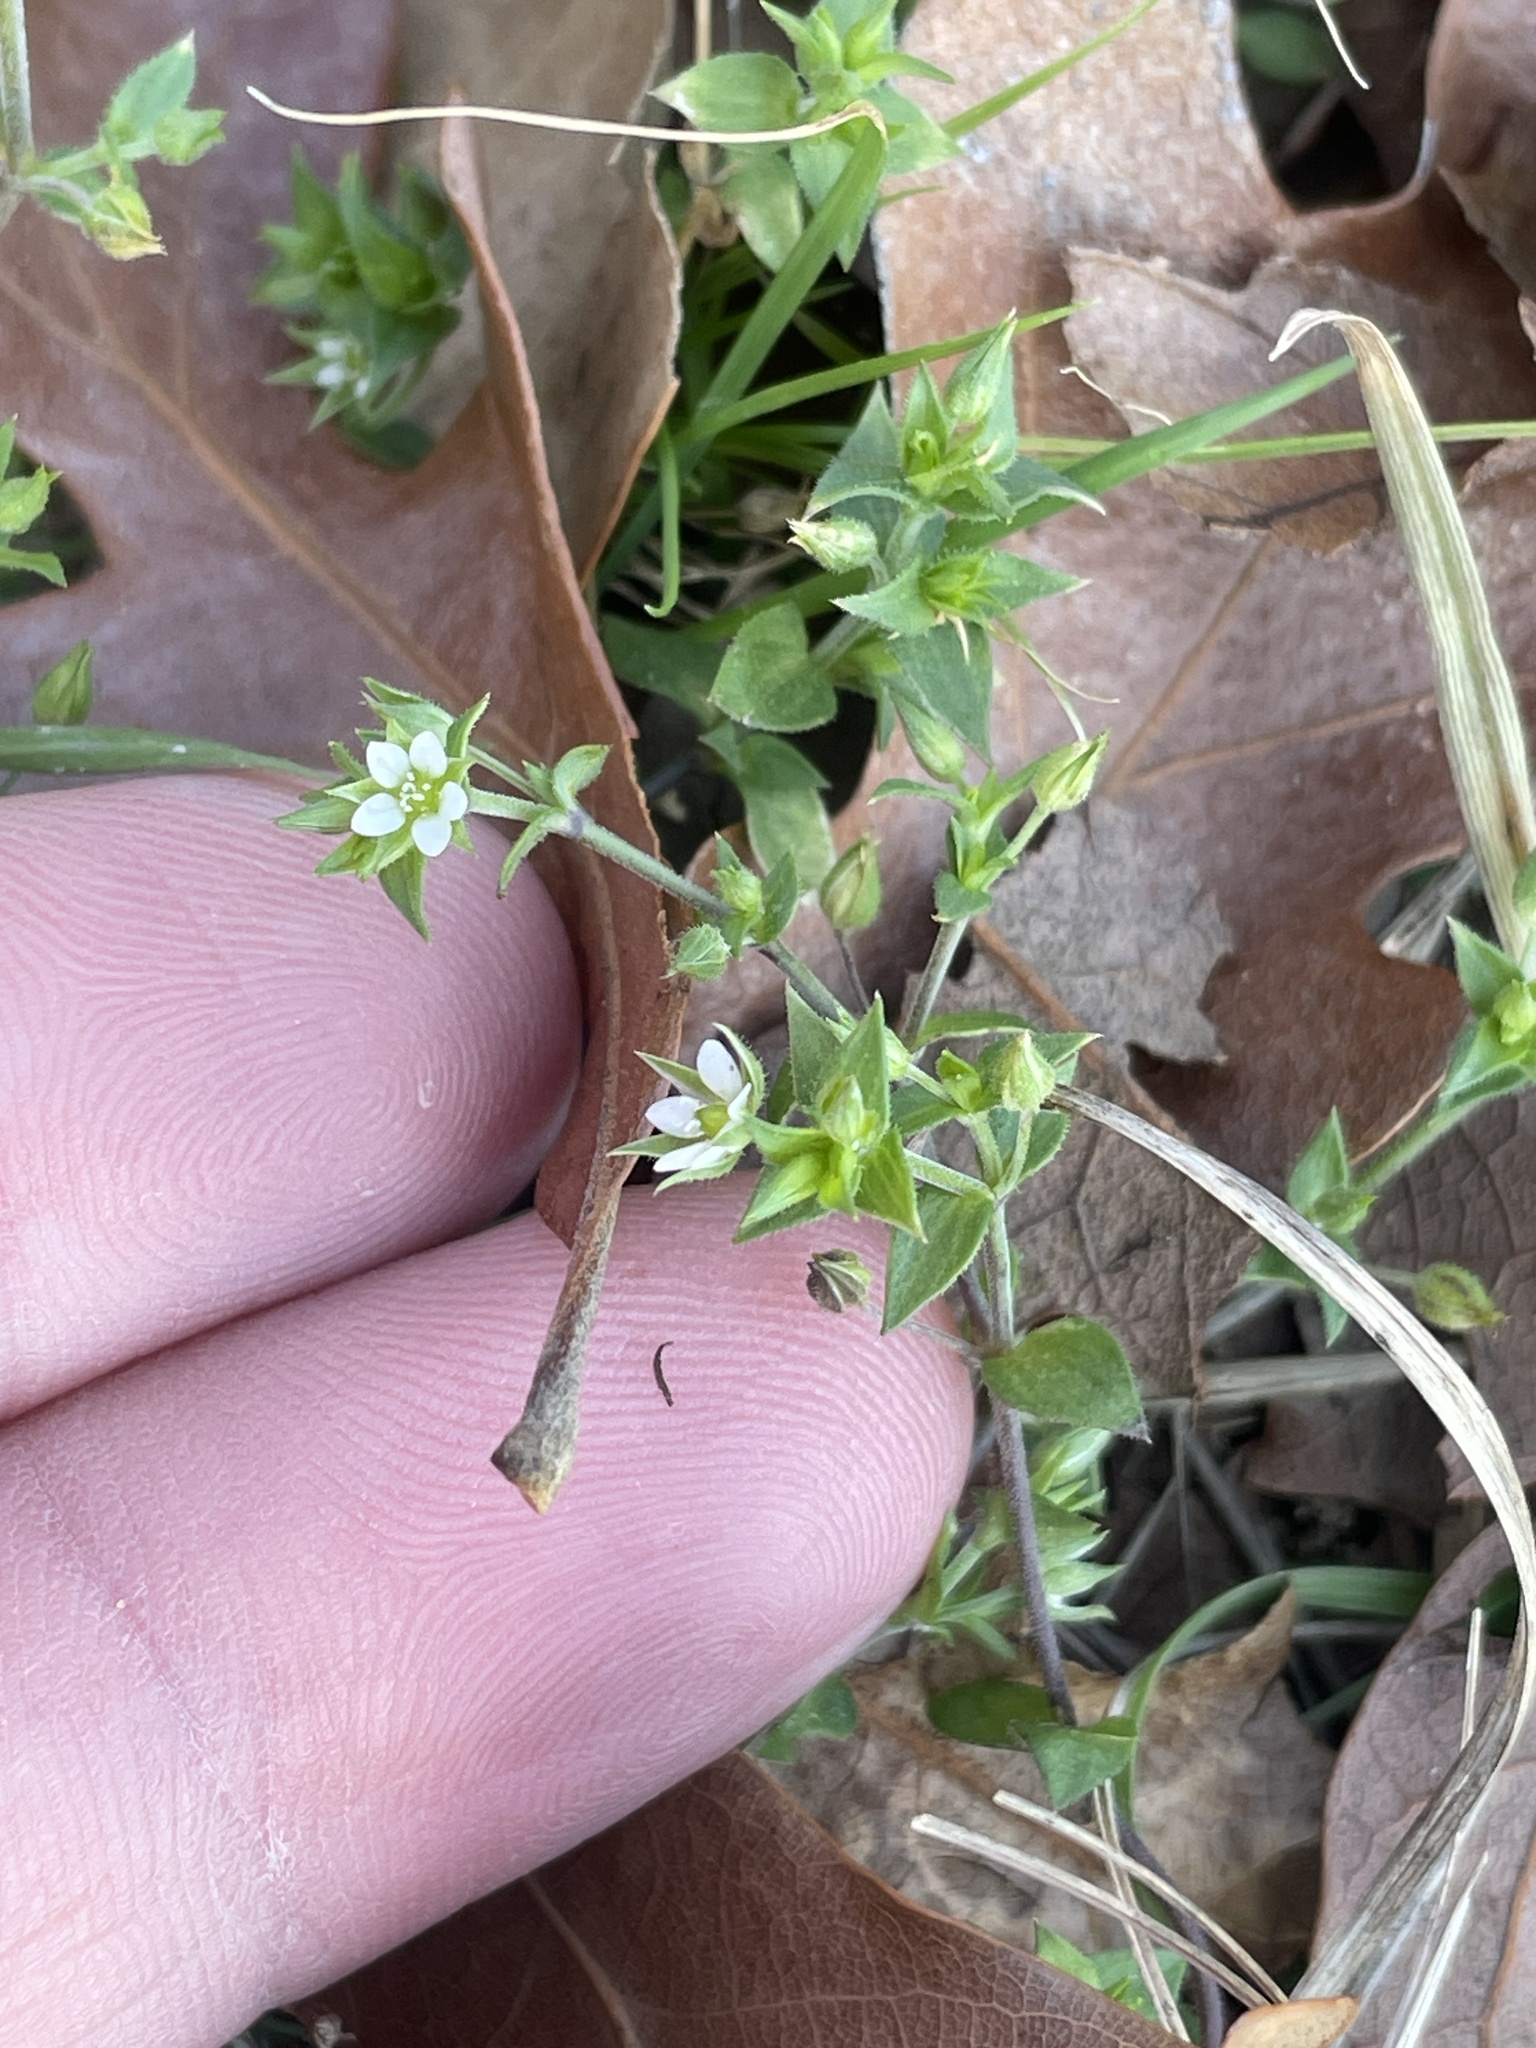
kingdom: Plantae
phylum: Tracheophyta
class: Magnoliopsida
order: Caryophyllales
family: Caryophyllaceae
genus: Arenaria
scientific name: Arenaria serpyllifolia
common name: Thyme-leaved sandwort
